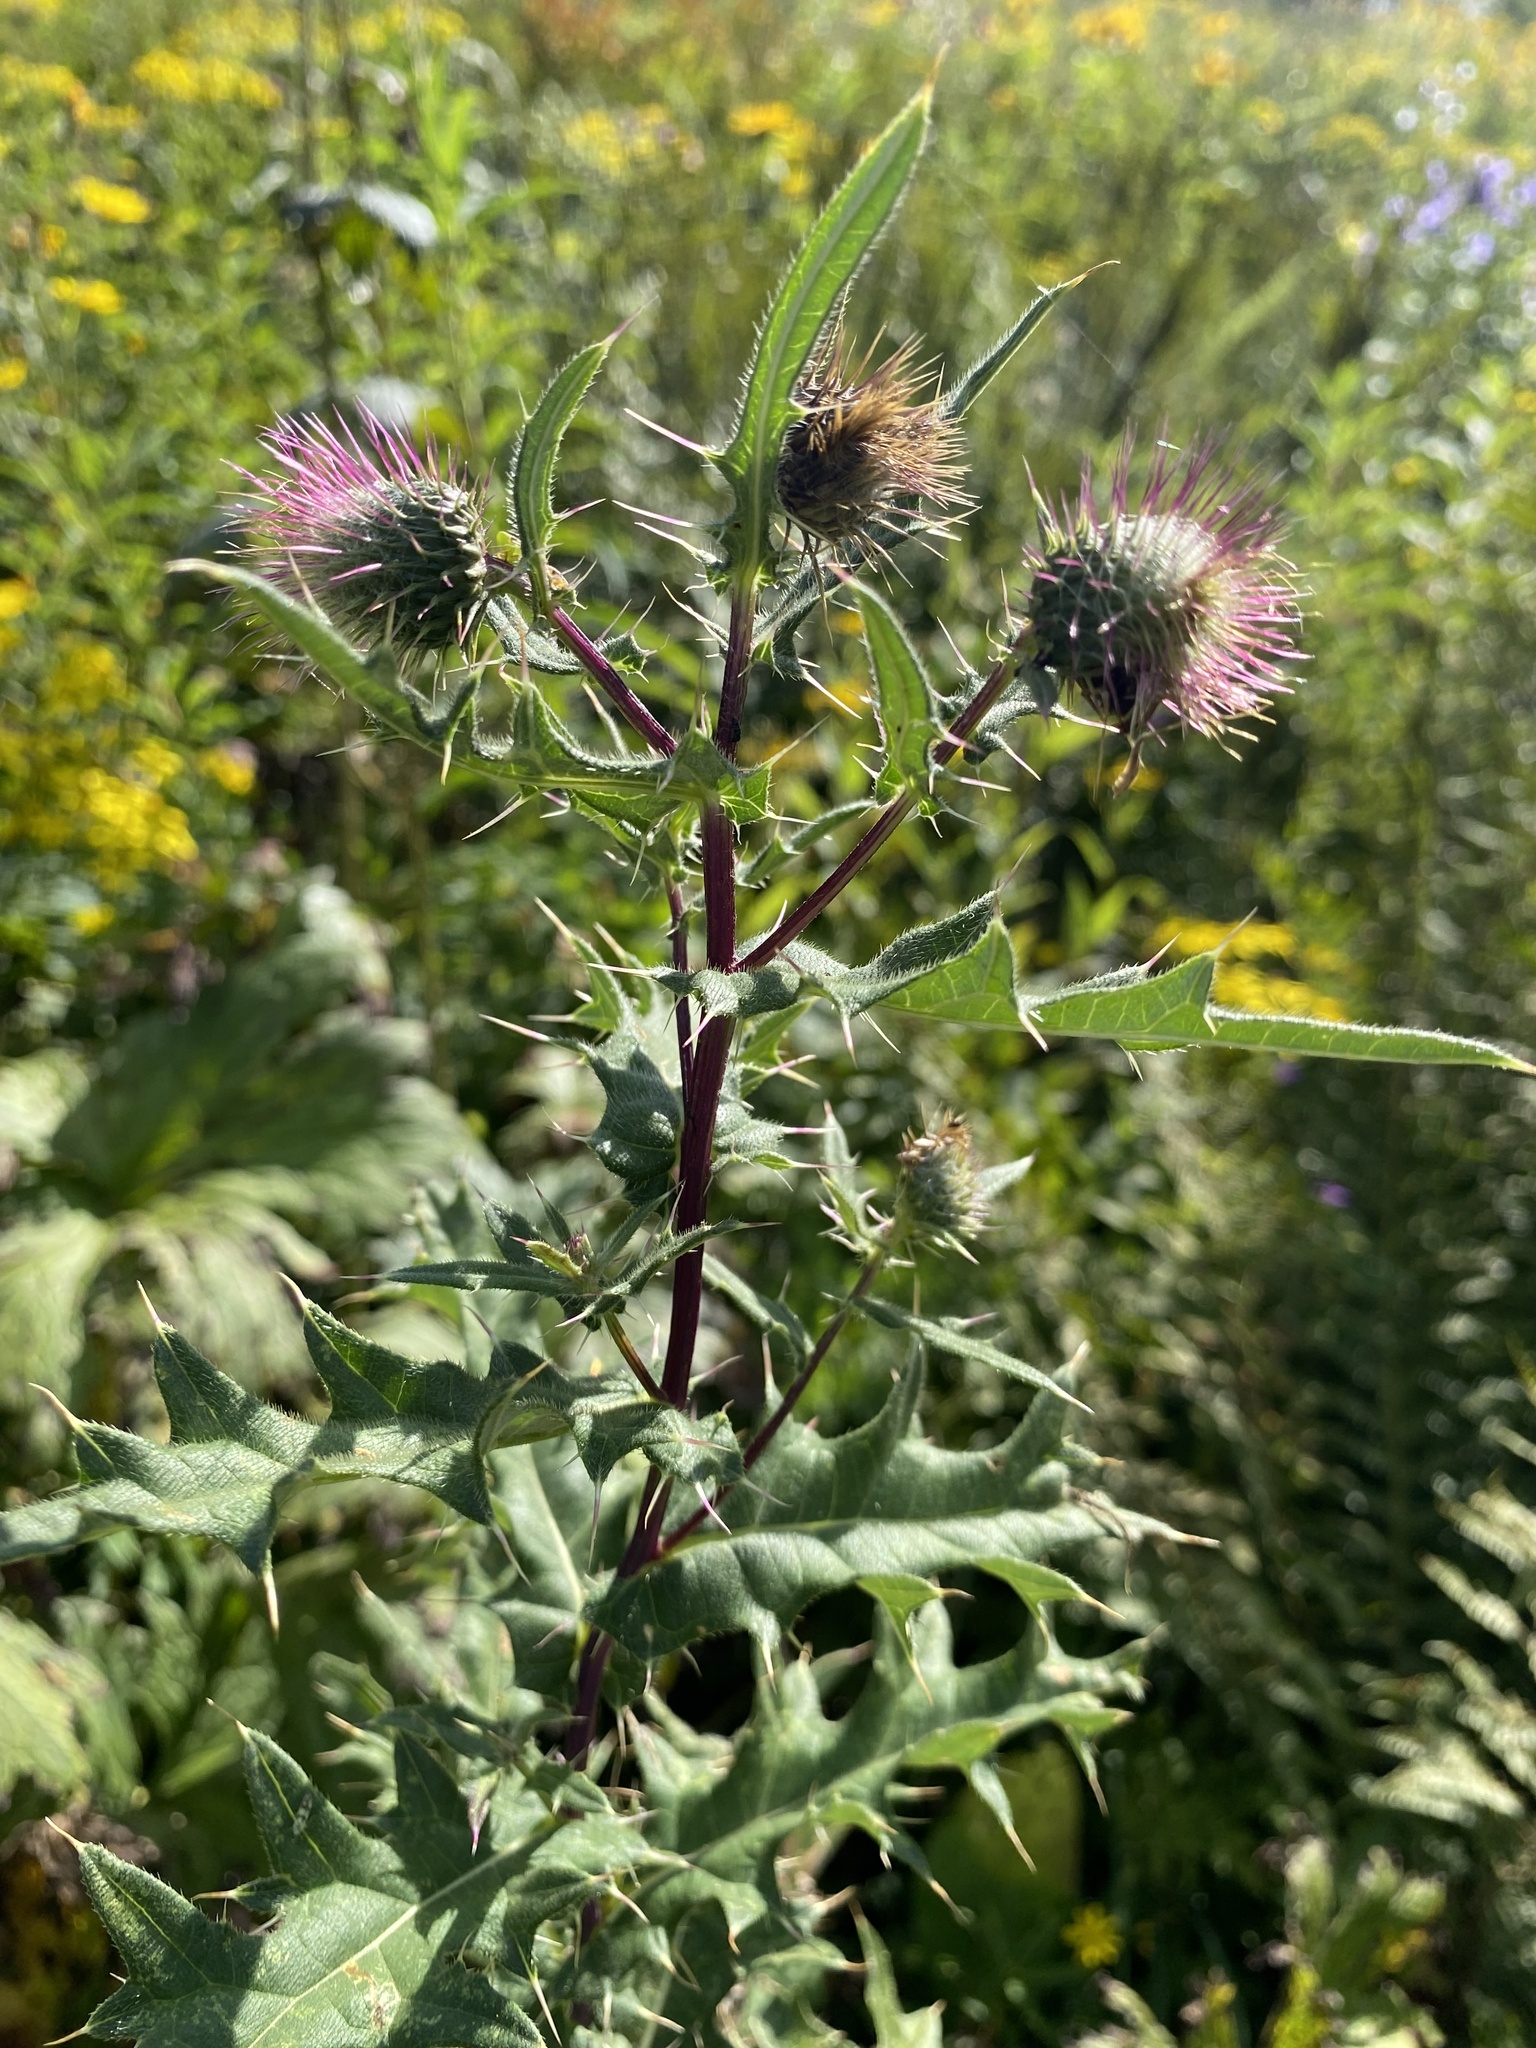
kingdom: Plantae
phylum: Tracheophyta
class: Magnoliopsida
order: Asterales
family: Asteraceae
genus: Lophiolepis
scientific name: Lophiolepis gagnidzei
